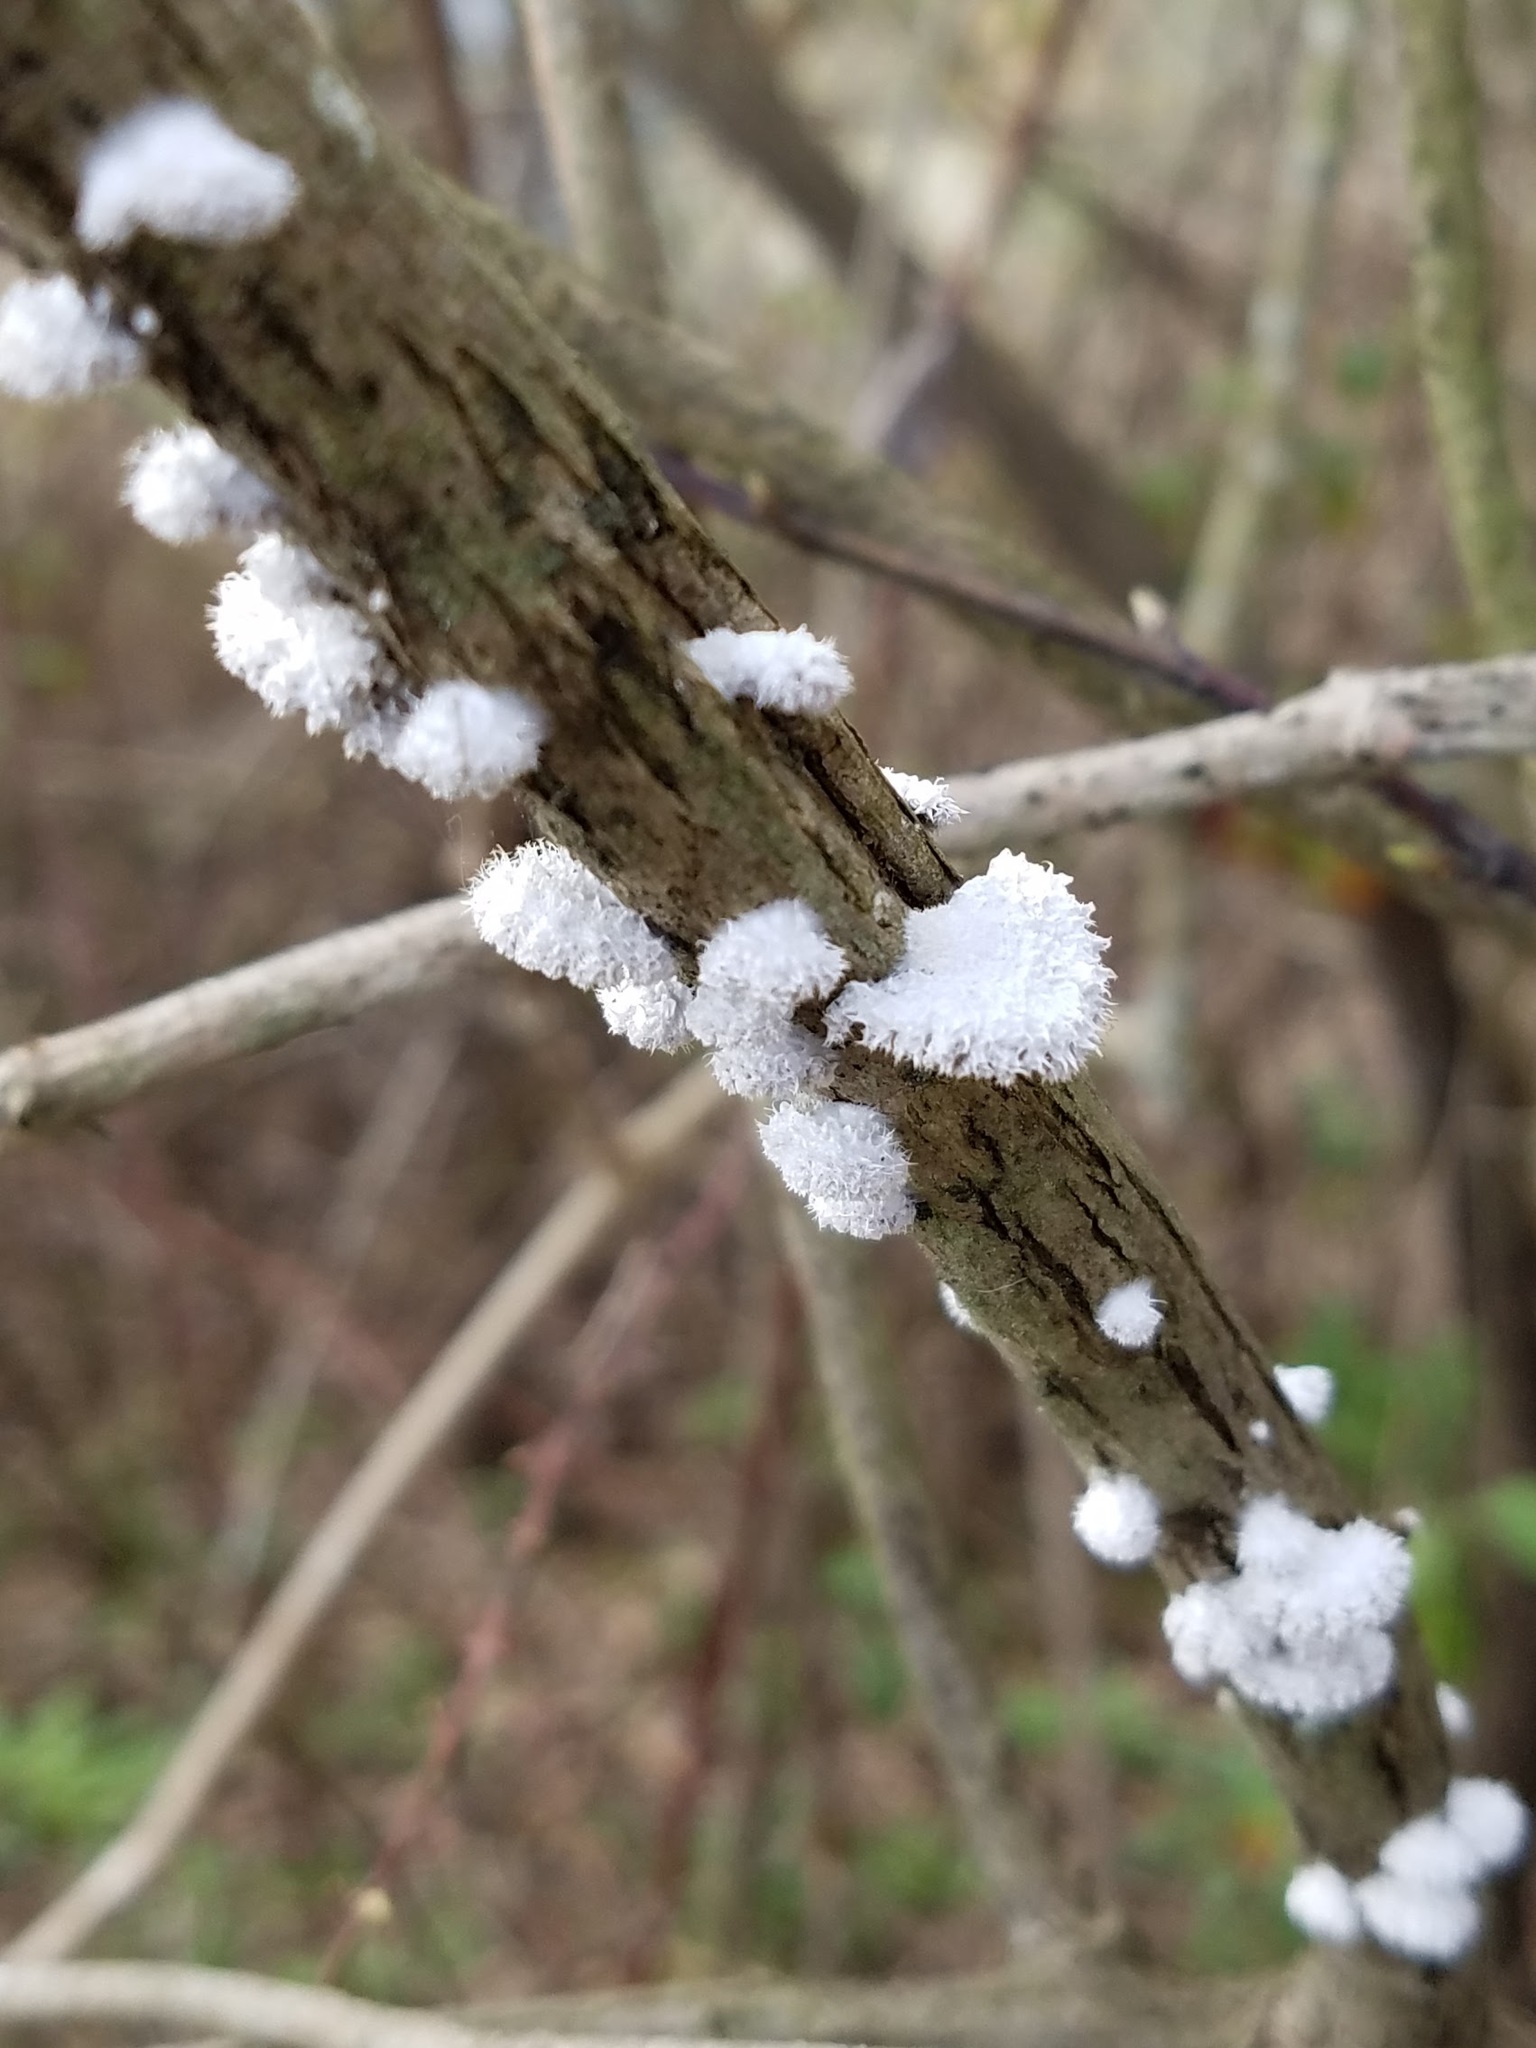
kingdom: Fungi
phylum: Basidiomycota
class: Agaricomycetes
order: Agaricales
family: Schizophyllaceae
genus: Schizophyllum
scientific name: Schizophyllum commune
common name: Common porecrust
